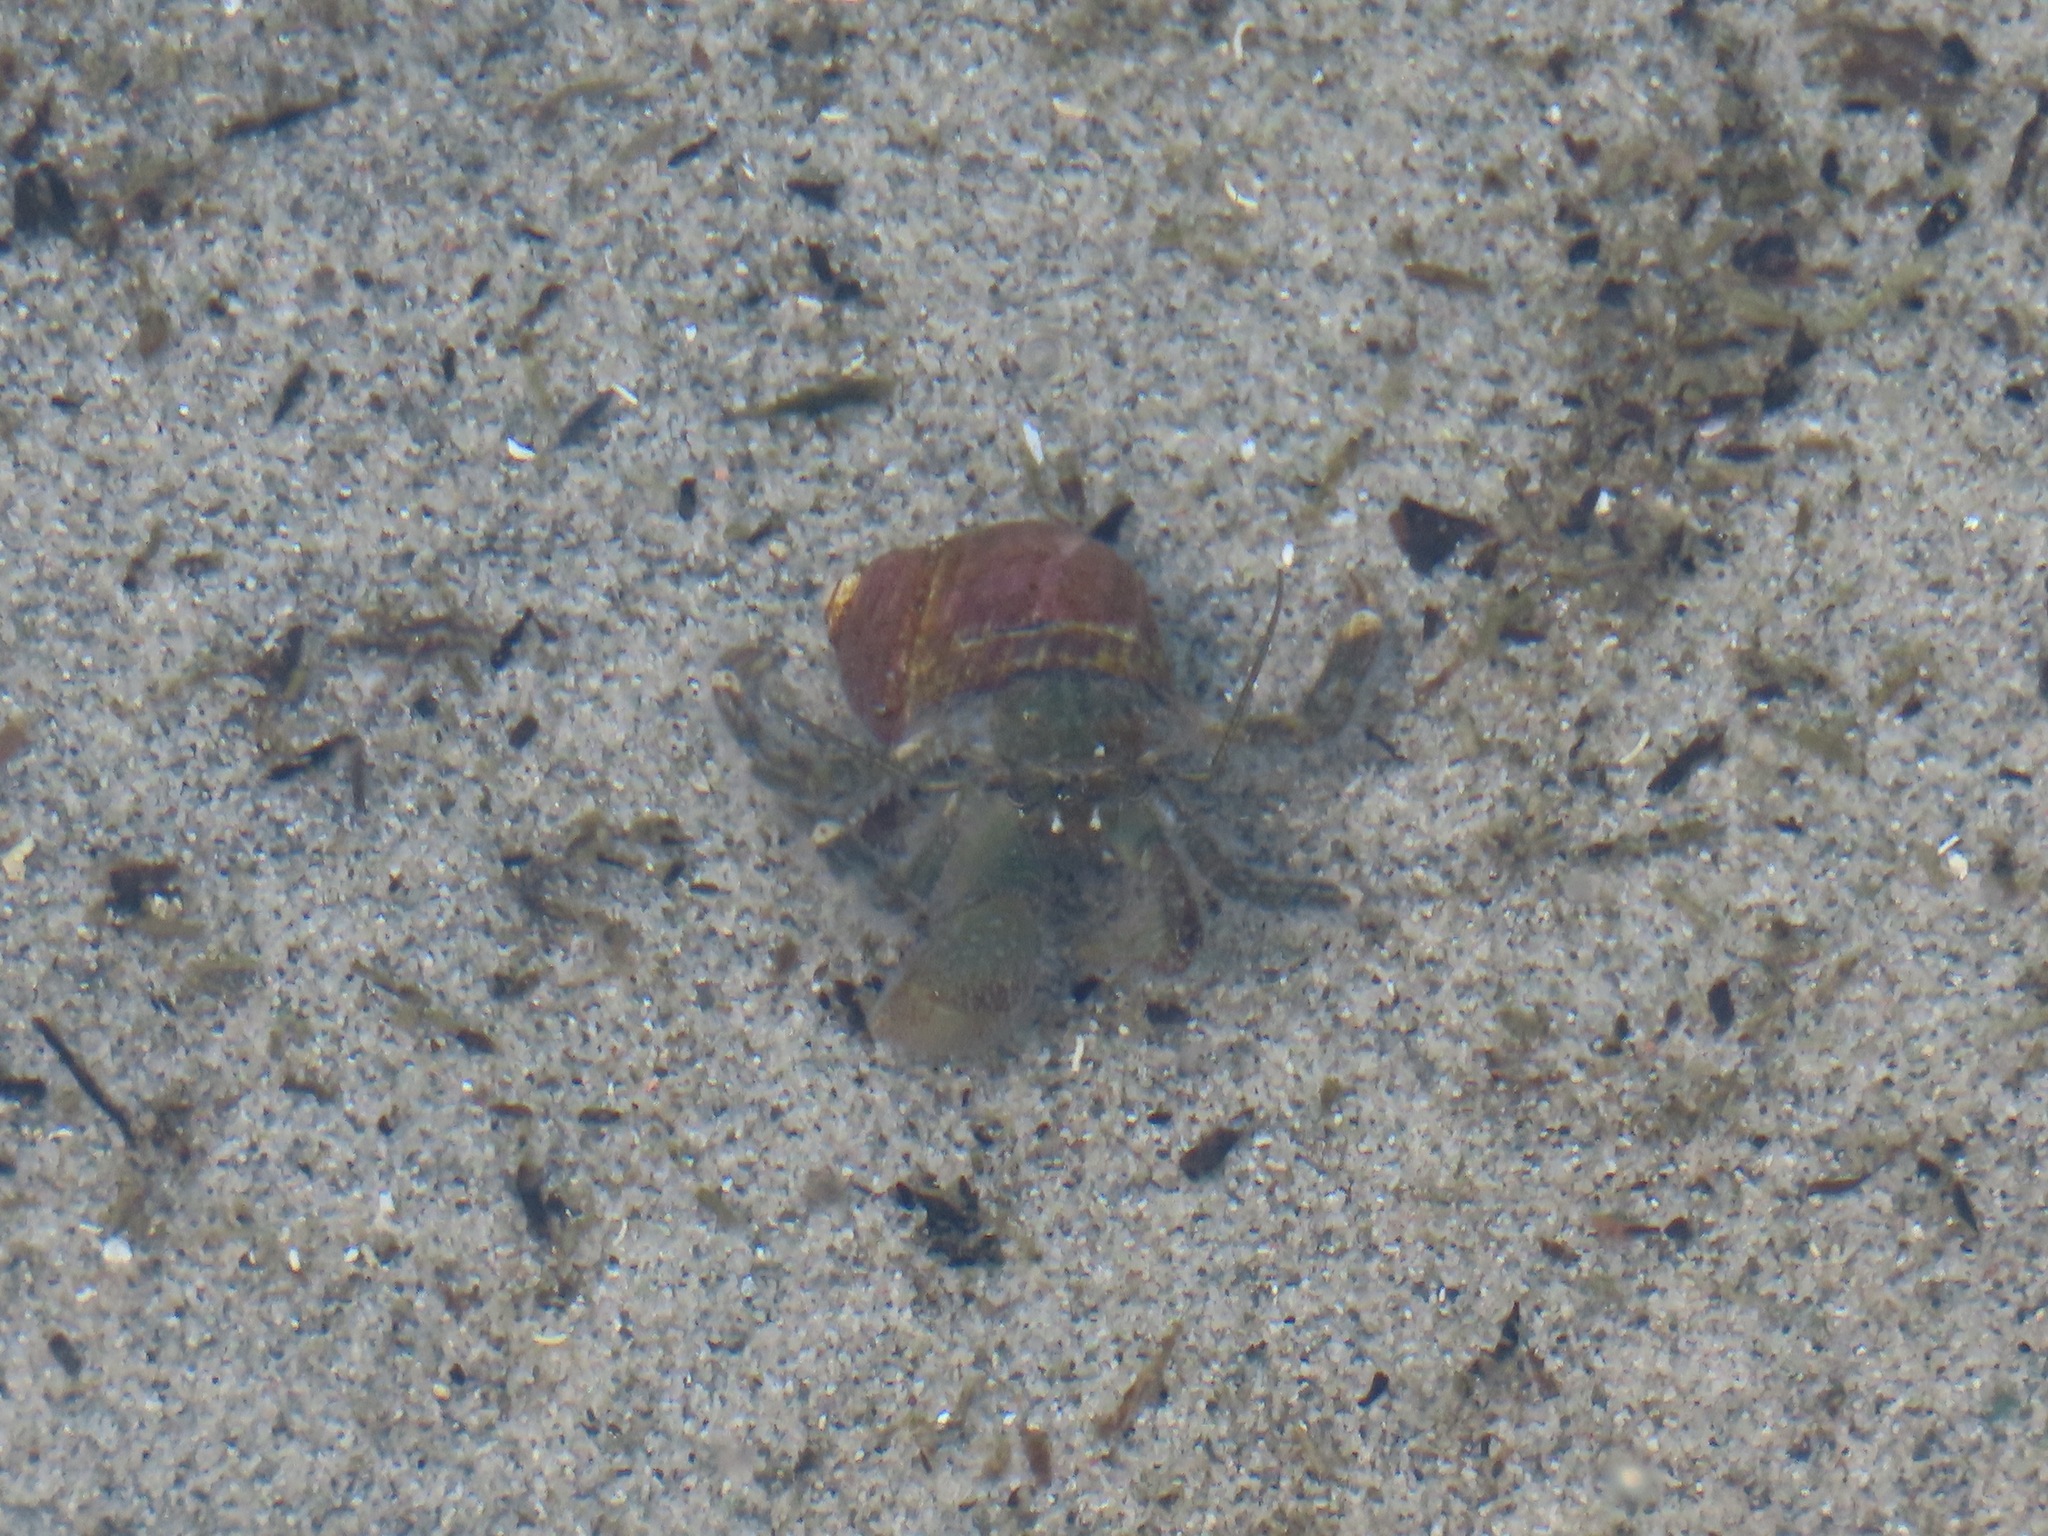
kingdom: Animalia
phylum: Arthropoda
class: Malacostraca
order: Decapoda
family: Paguridae
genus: Pagurus
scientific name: Pagurus hirsutiusculus
